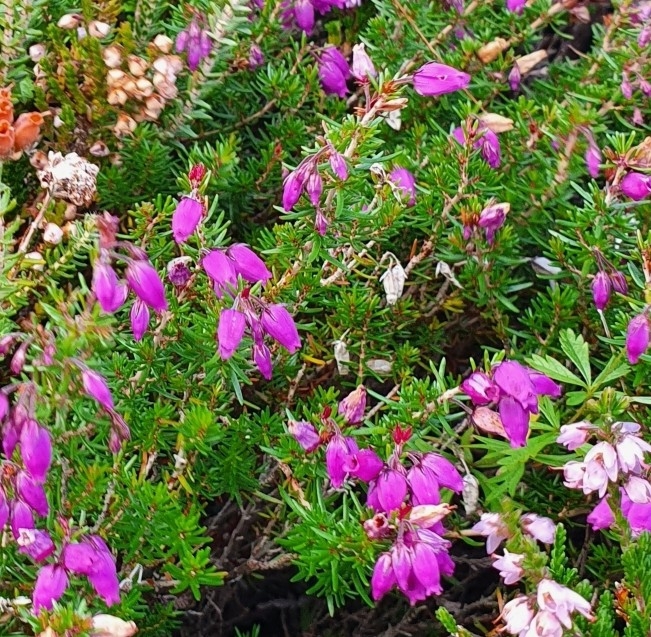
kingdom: Plantae
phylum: Tracheophyta
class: Magnoliopsida
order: Ericales
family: Ericaceae
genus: Erica
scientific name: Erica cinerea
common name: Bell heather
